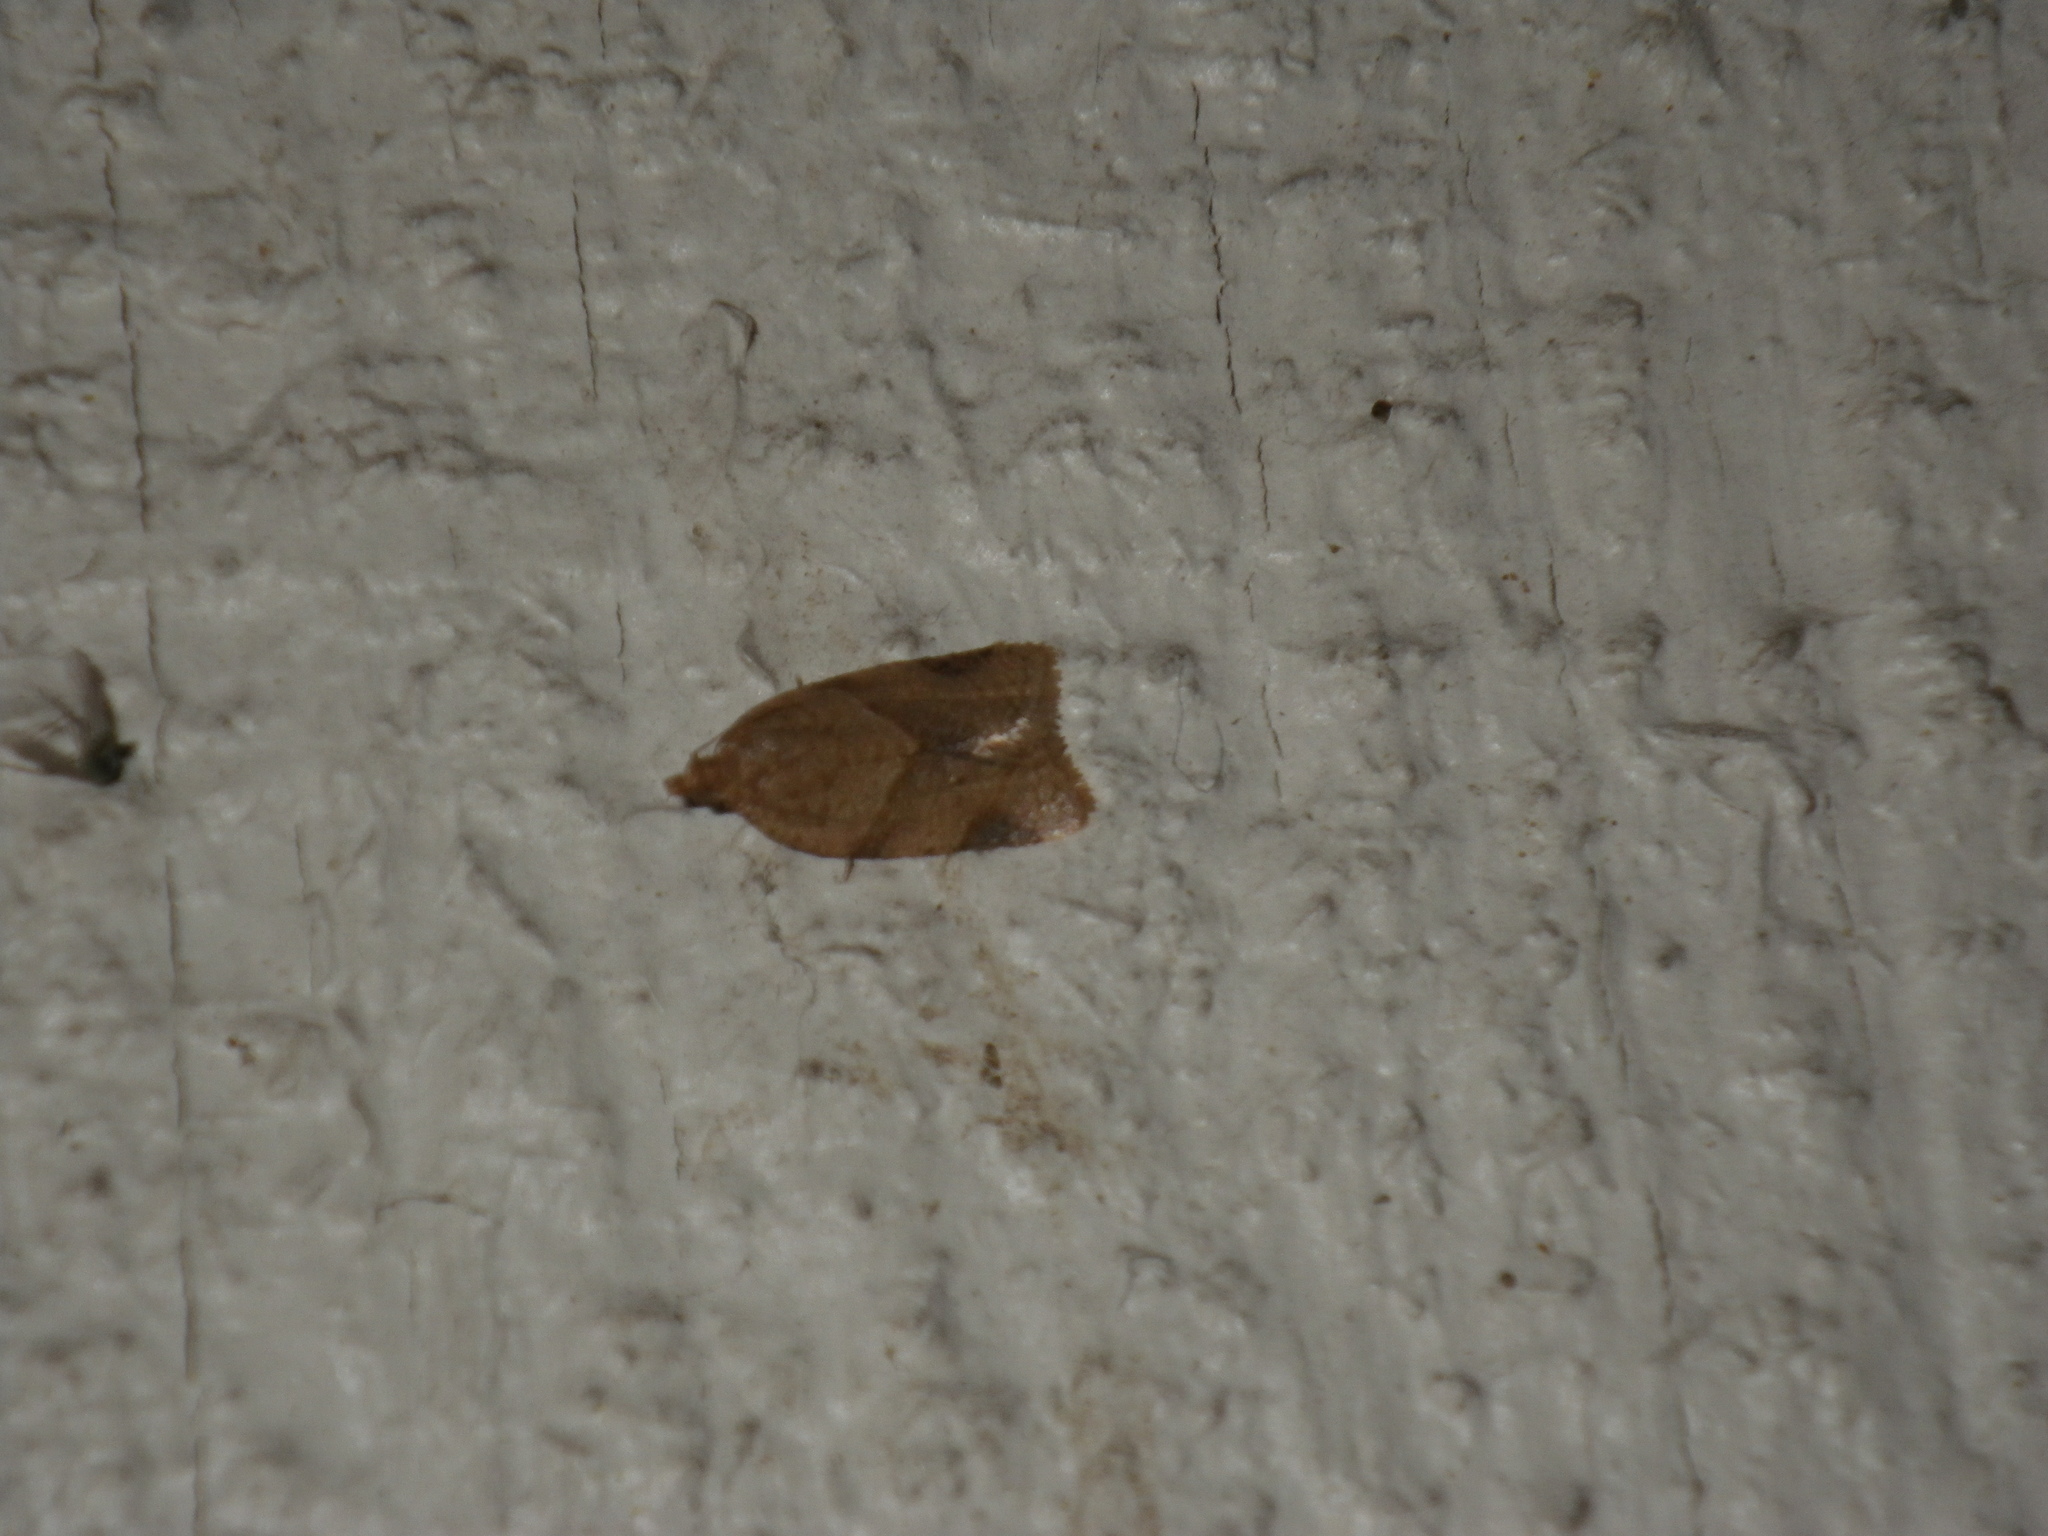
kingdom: Animalia
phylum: Arthropoda
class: Insecta
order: Lepidoptera
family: Tortricidae
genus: Clepsis
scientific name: Clepsis peritana
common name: Garden tortrix
